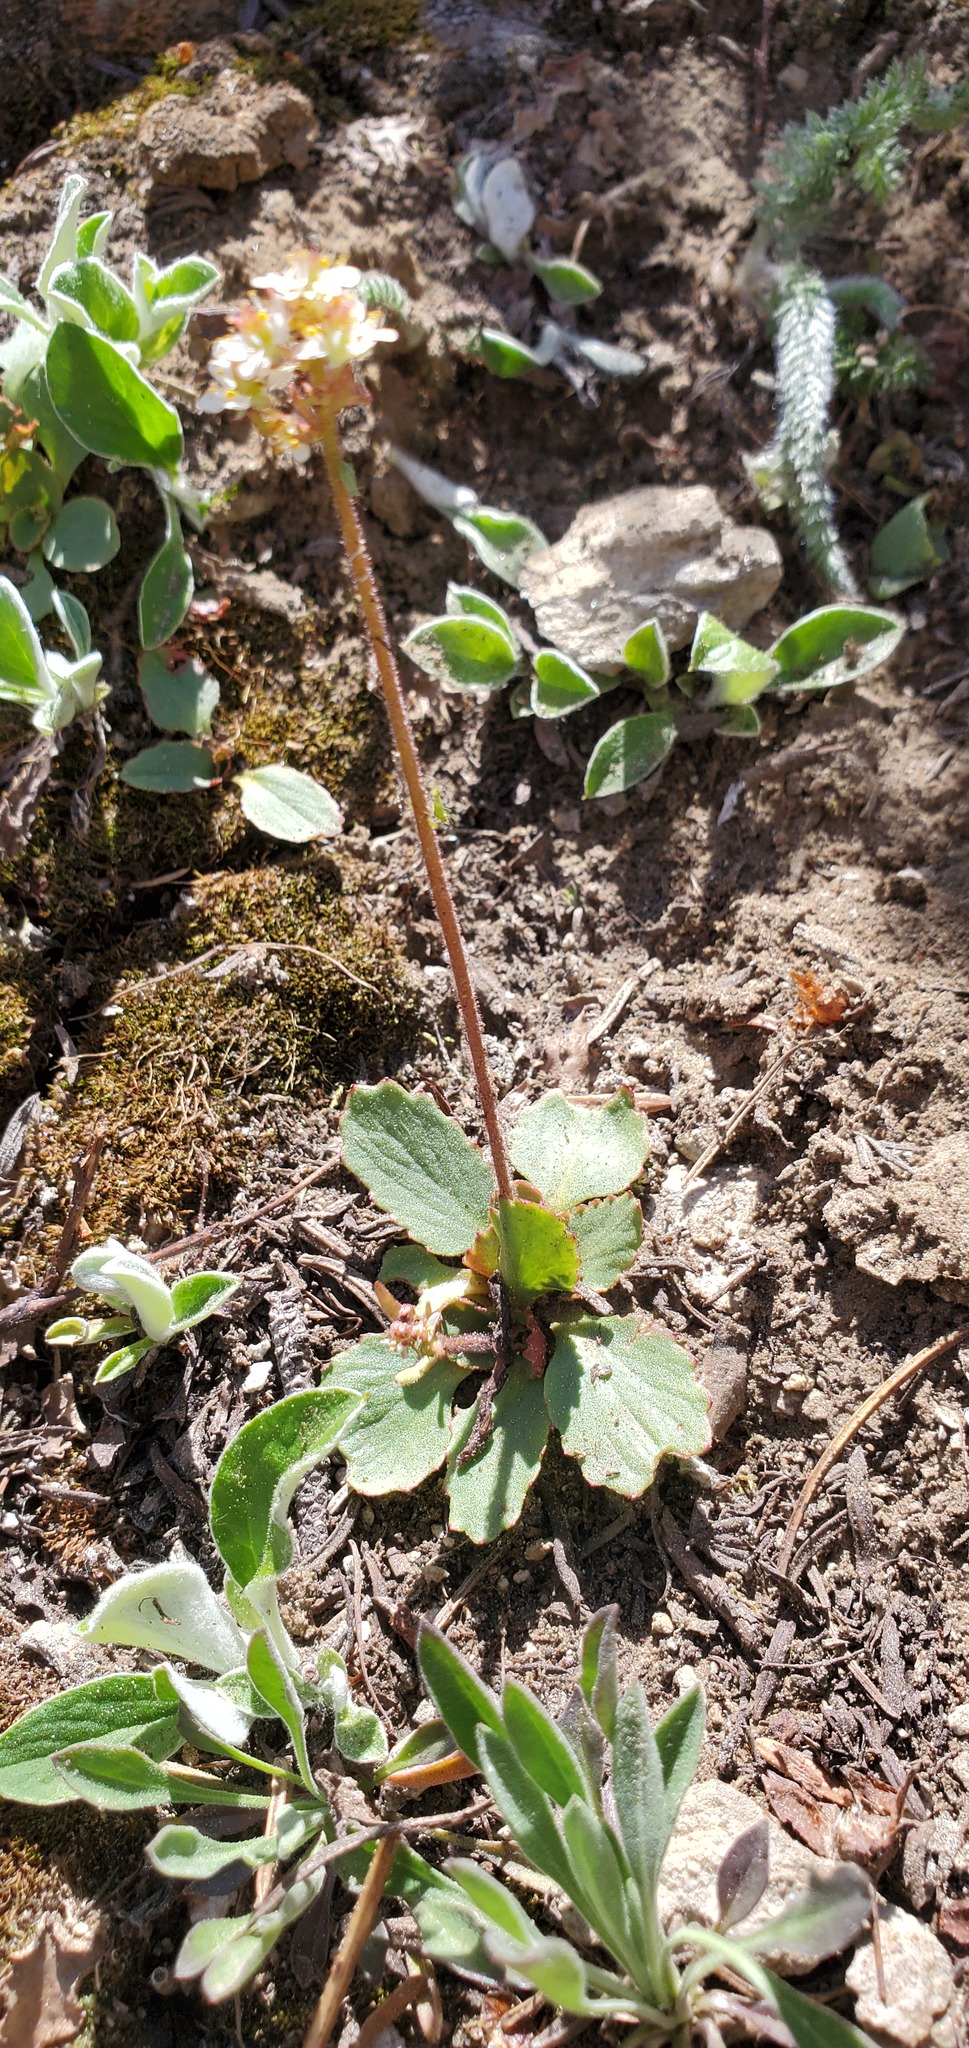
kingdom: Plantae
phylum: Tracheophyta
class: Magnoliopsida
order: Saxifragales
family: Saxifragaceae
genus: Micranthes
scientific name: Micranthes occidentalis
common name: Alberta saxifrage
